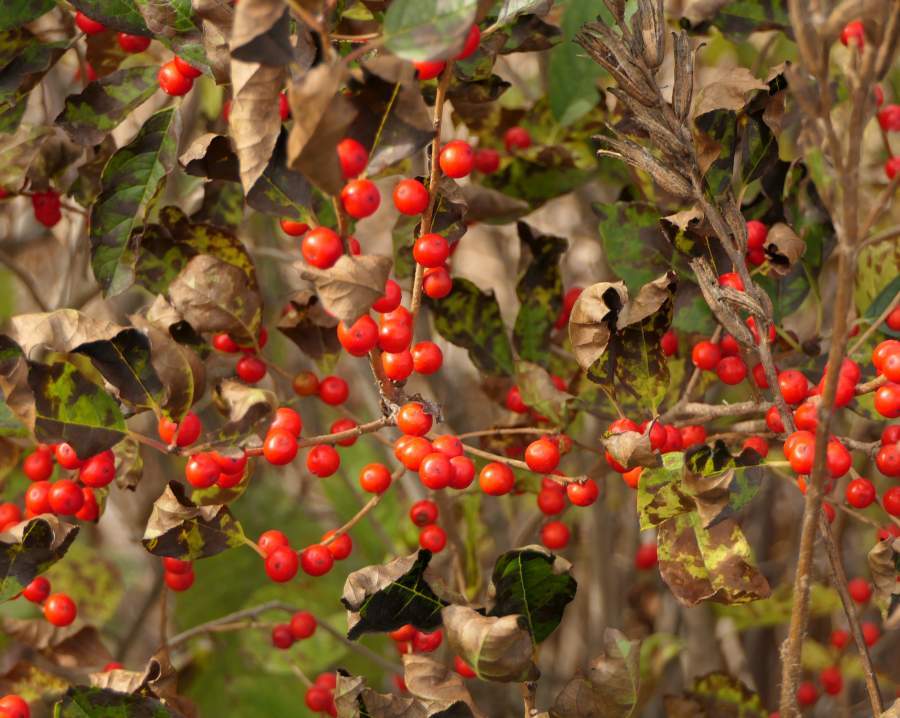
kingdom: Plantae
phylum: Tracheophyta
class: Magnoliopsida
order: Aquifoliales
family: Aquifoliaceae
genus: Ilex
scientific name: Ilex verticillata
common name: Virginia winterberry
